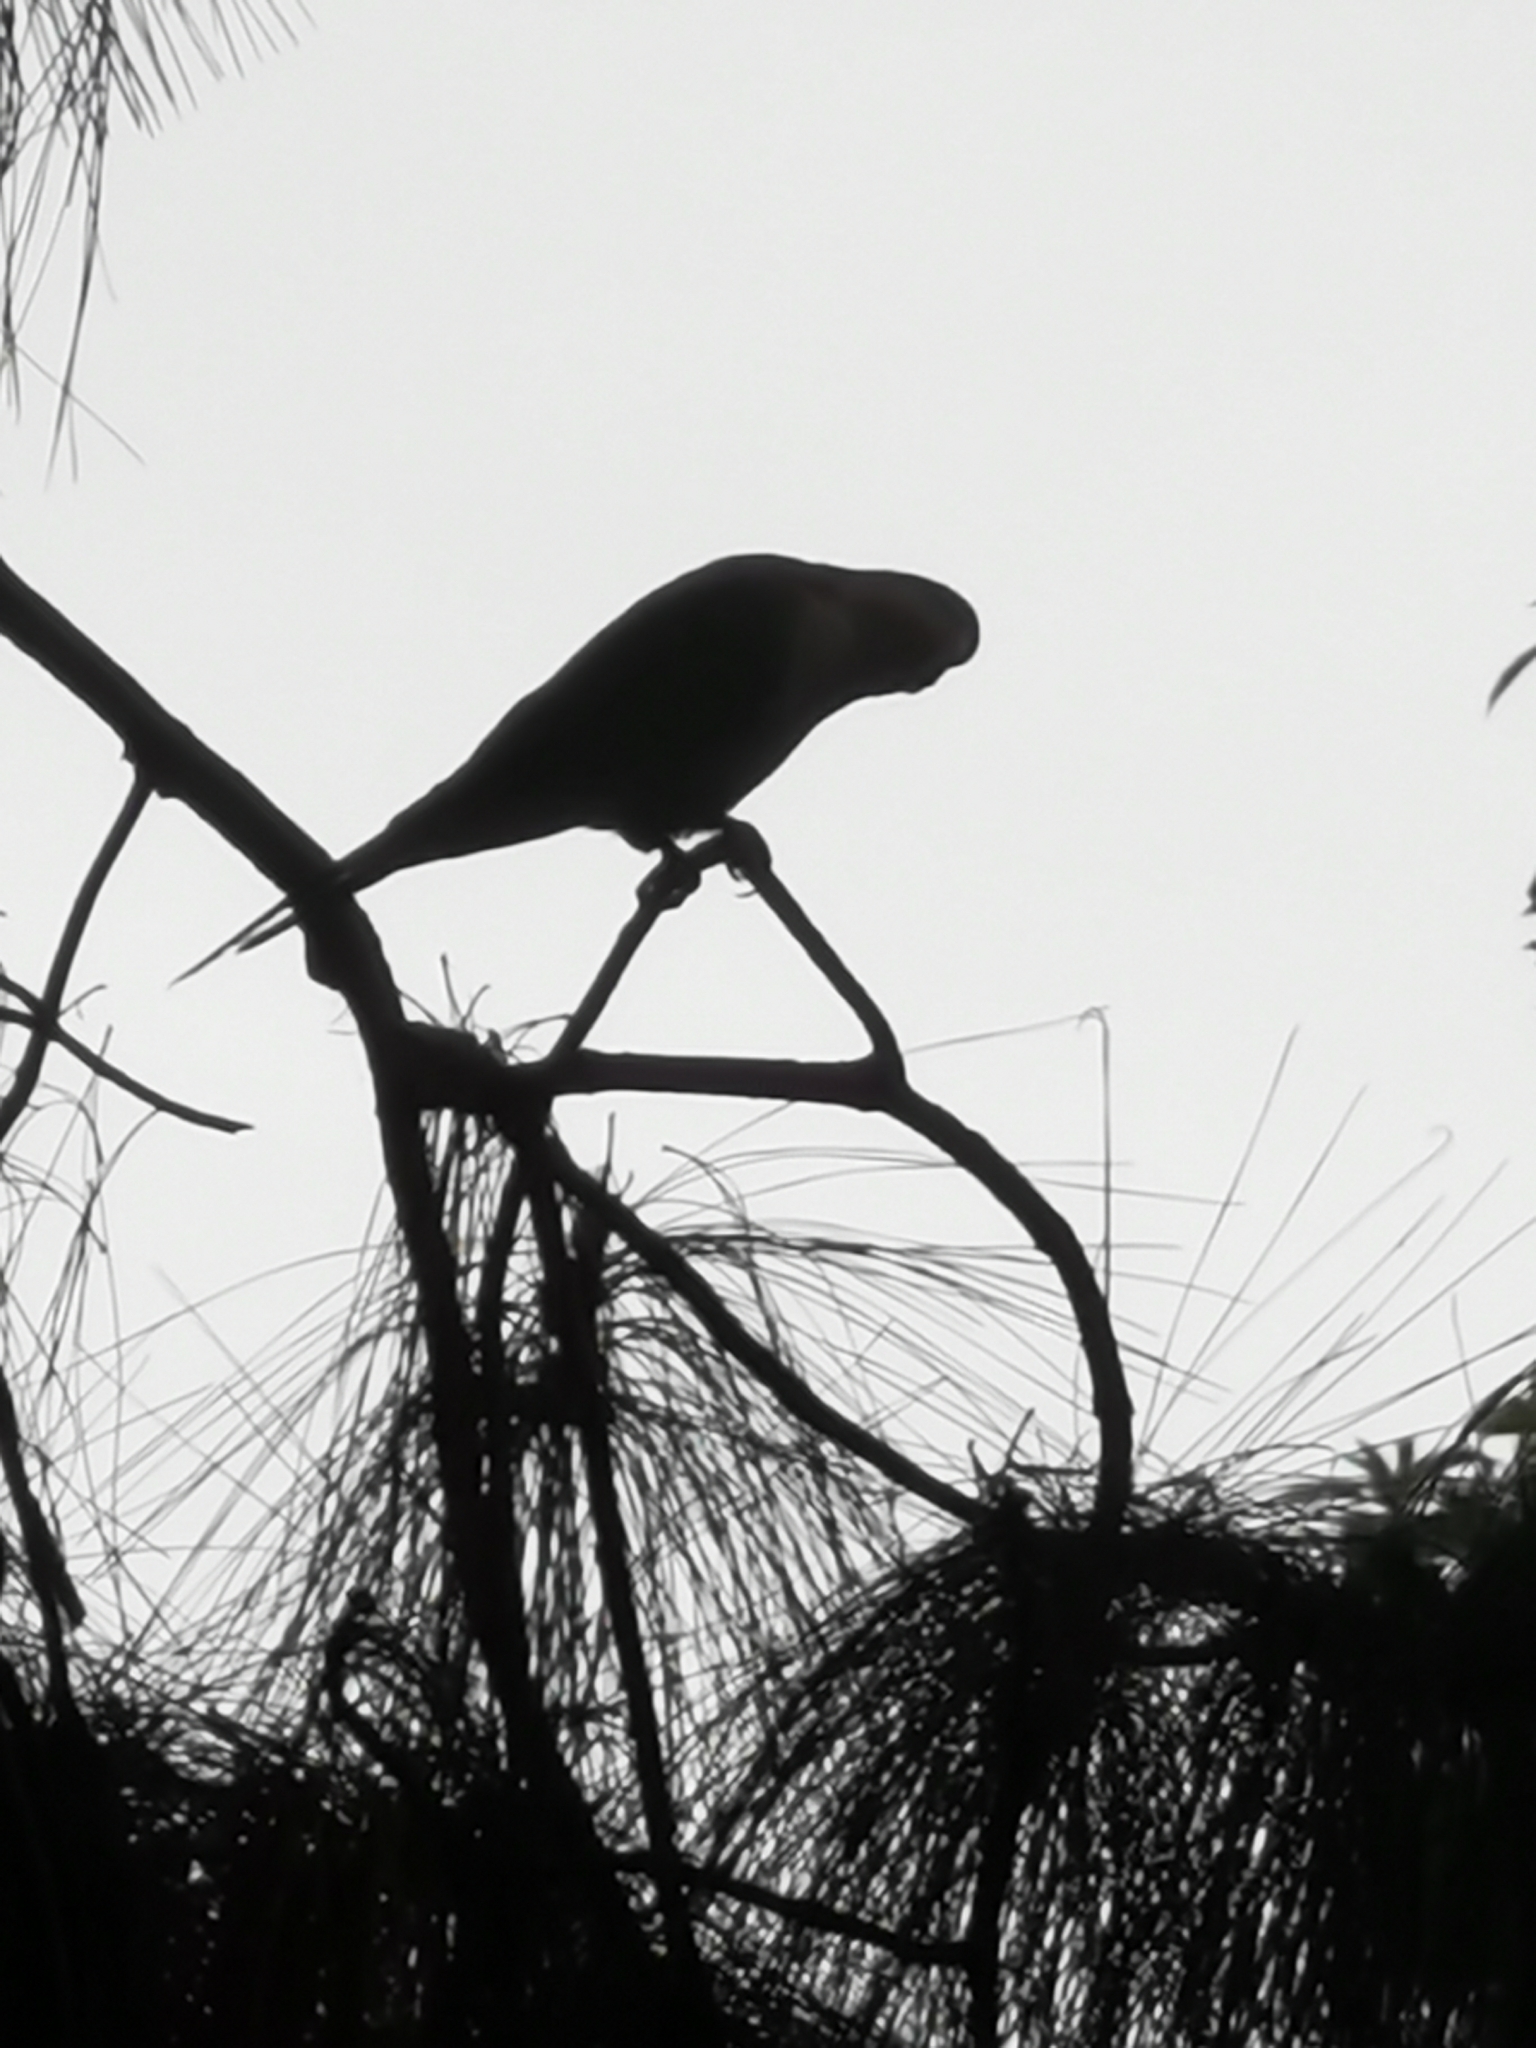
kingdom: Animalia
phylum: Chordata
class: Aves
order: Psittaciformes
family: Psittacidae
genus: Myiopsitta
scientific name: Myiopsitta monachus
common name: Monk parakeet
